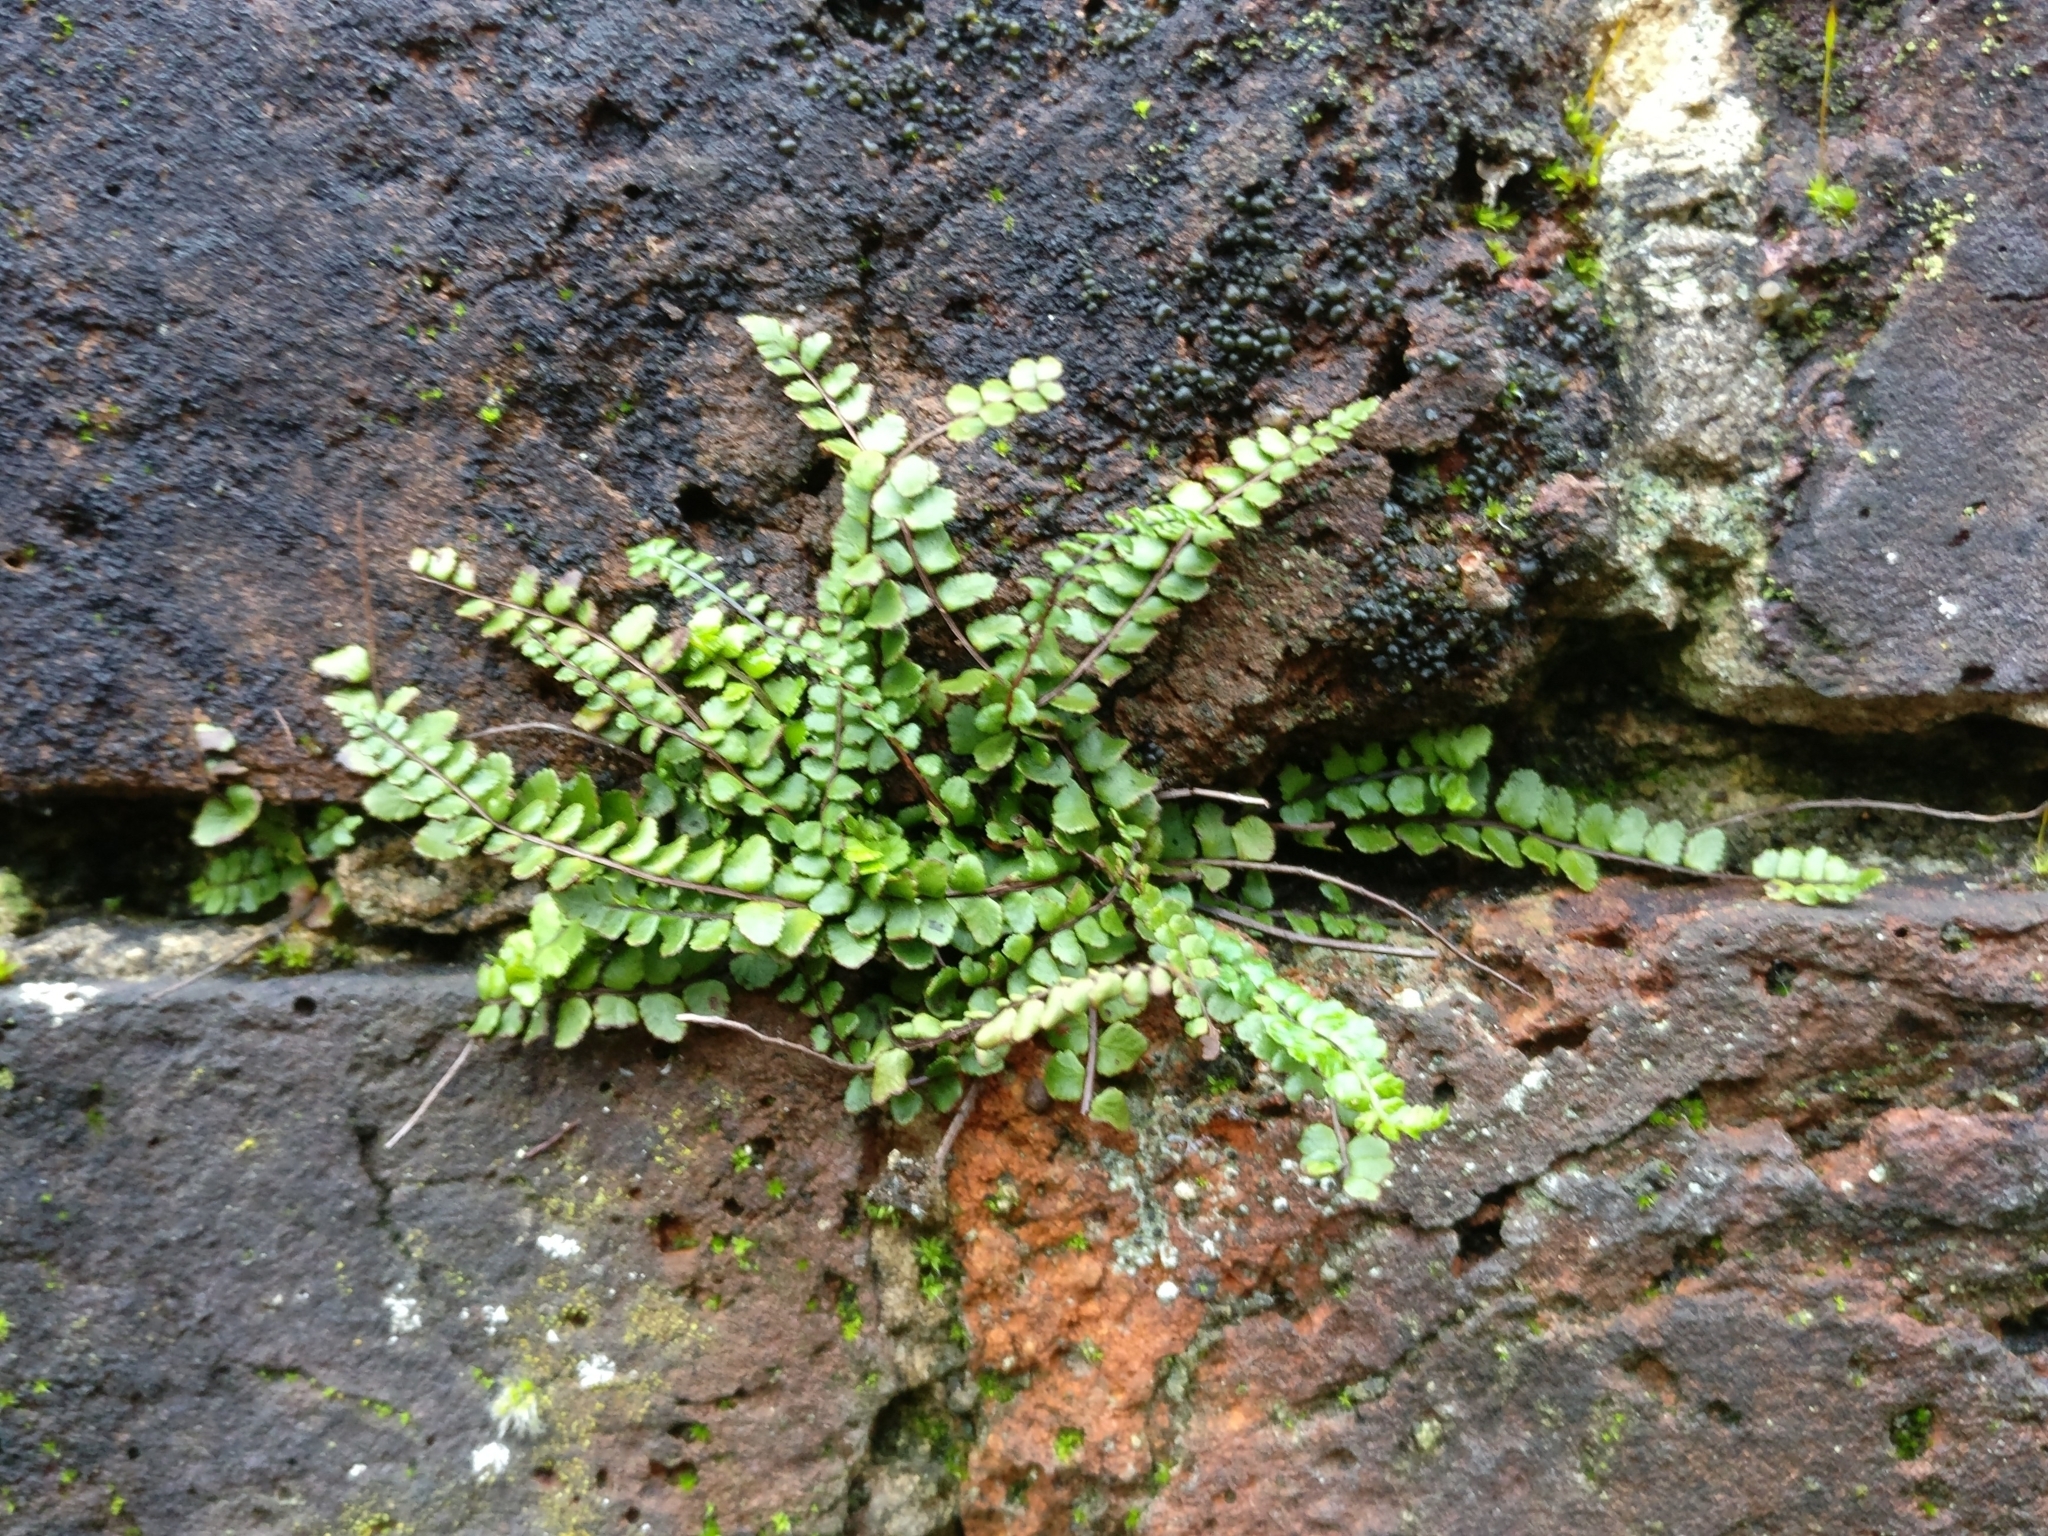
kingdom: Plantae
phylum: Tracheophyta
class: Polypodiopsida
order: Polypodiales
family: Aspleniaceae
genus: Asplenium
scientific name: Asplenium trichomanes
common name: Maidenhair spleenwort
